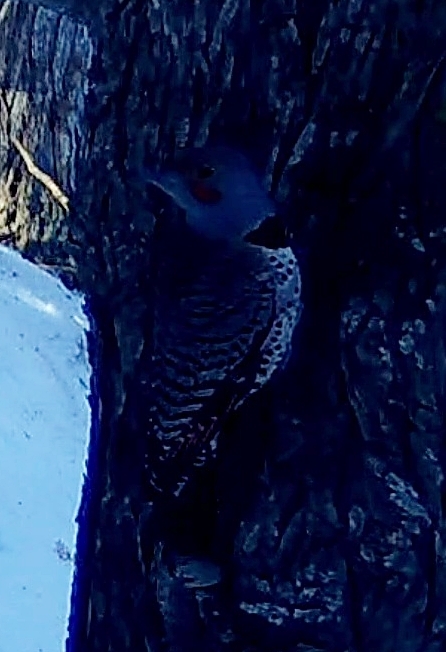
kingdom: Animalia
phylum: Chordata
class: Aves
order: Piciformes
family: Picidae
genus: Colaptes
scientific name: Colaptes auratus
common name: Northern flicker
